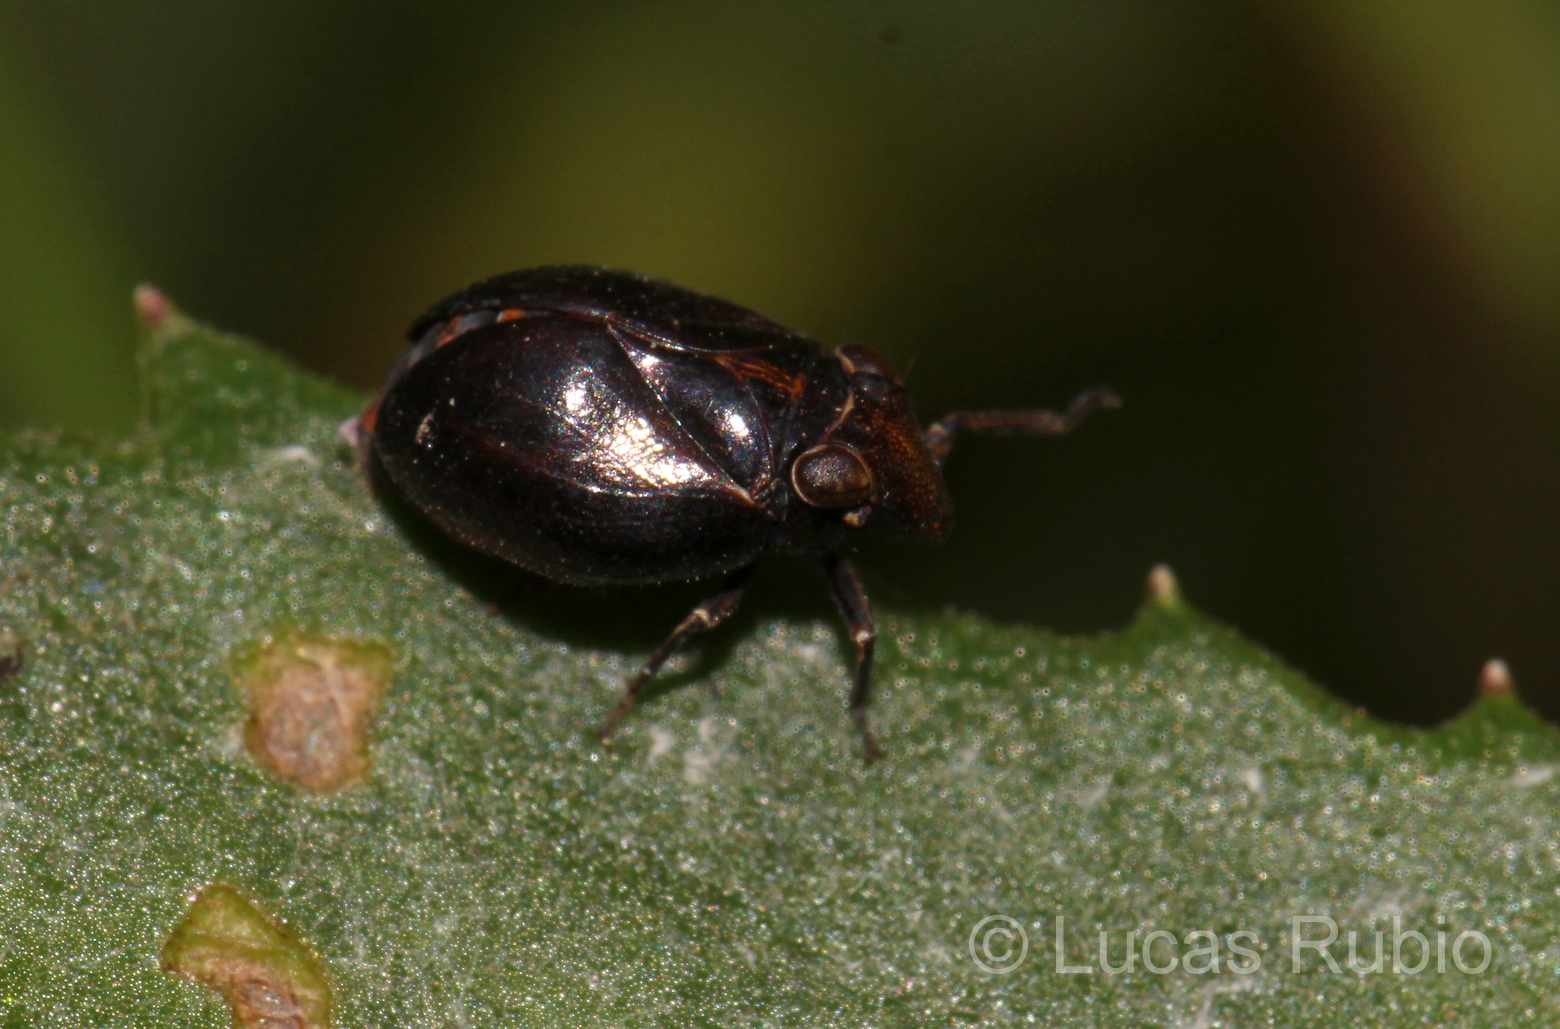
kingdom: Animalia
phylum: Arthropoda
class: Insecta
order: Hemiptera
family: Issidae
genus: Argepara
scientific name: Argepara lyra
